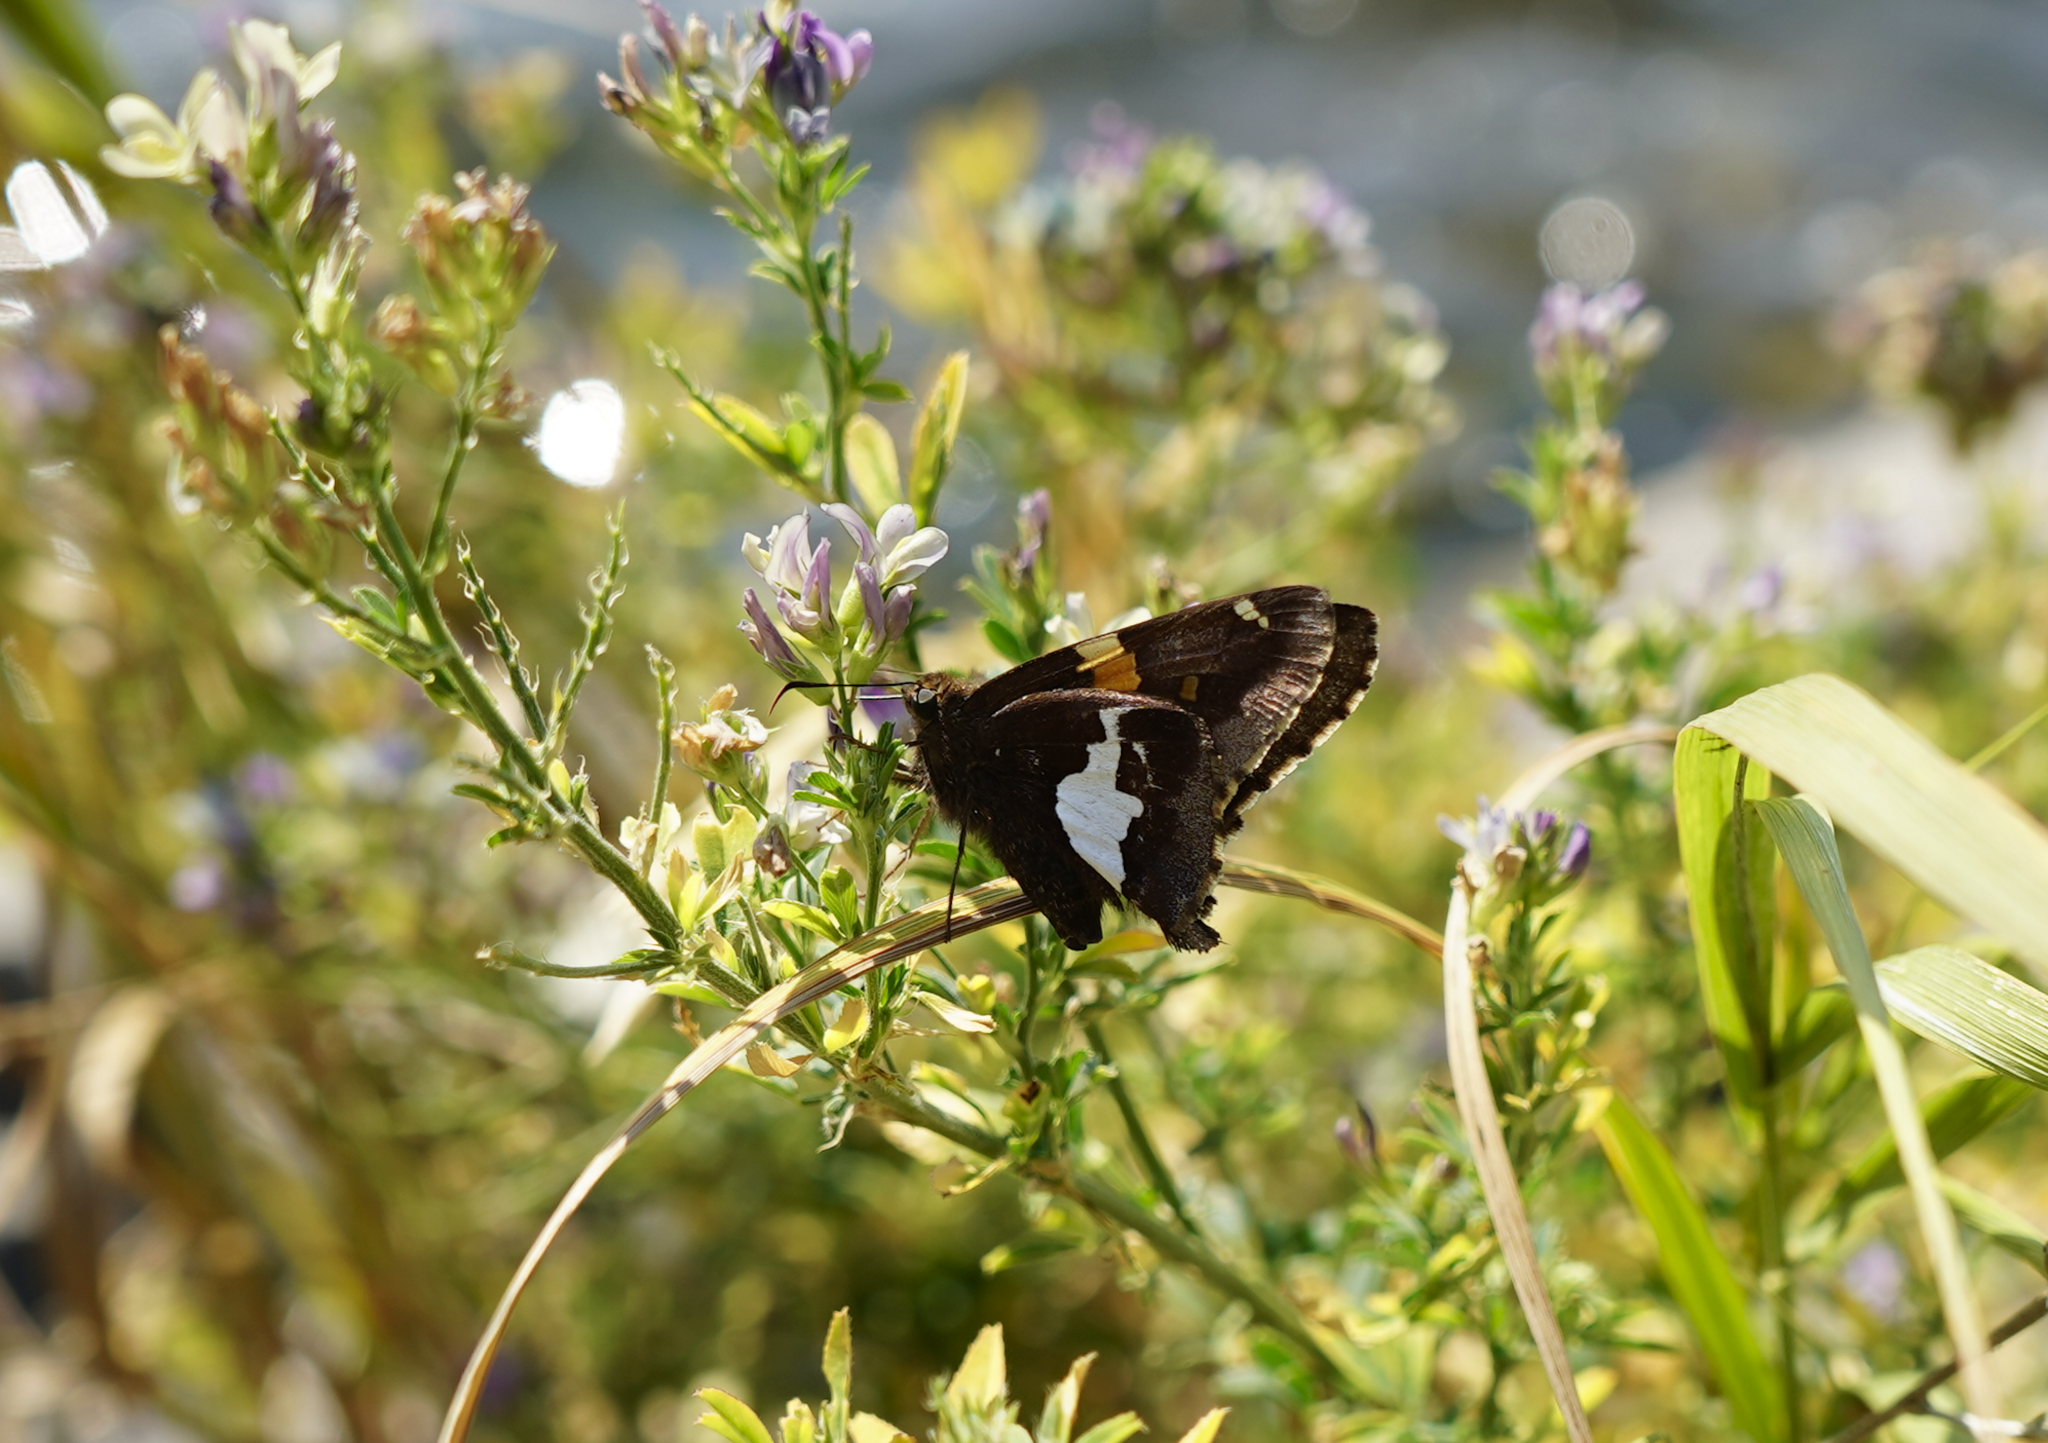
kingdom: Animalia
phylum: Arthropoda
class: Insecta
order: Lepidoptera
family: Hesperiidae
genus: Epargyreus
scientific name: Epargyreus clarus
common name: Silver-spotted skipper
